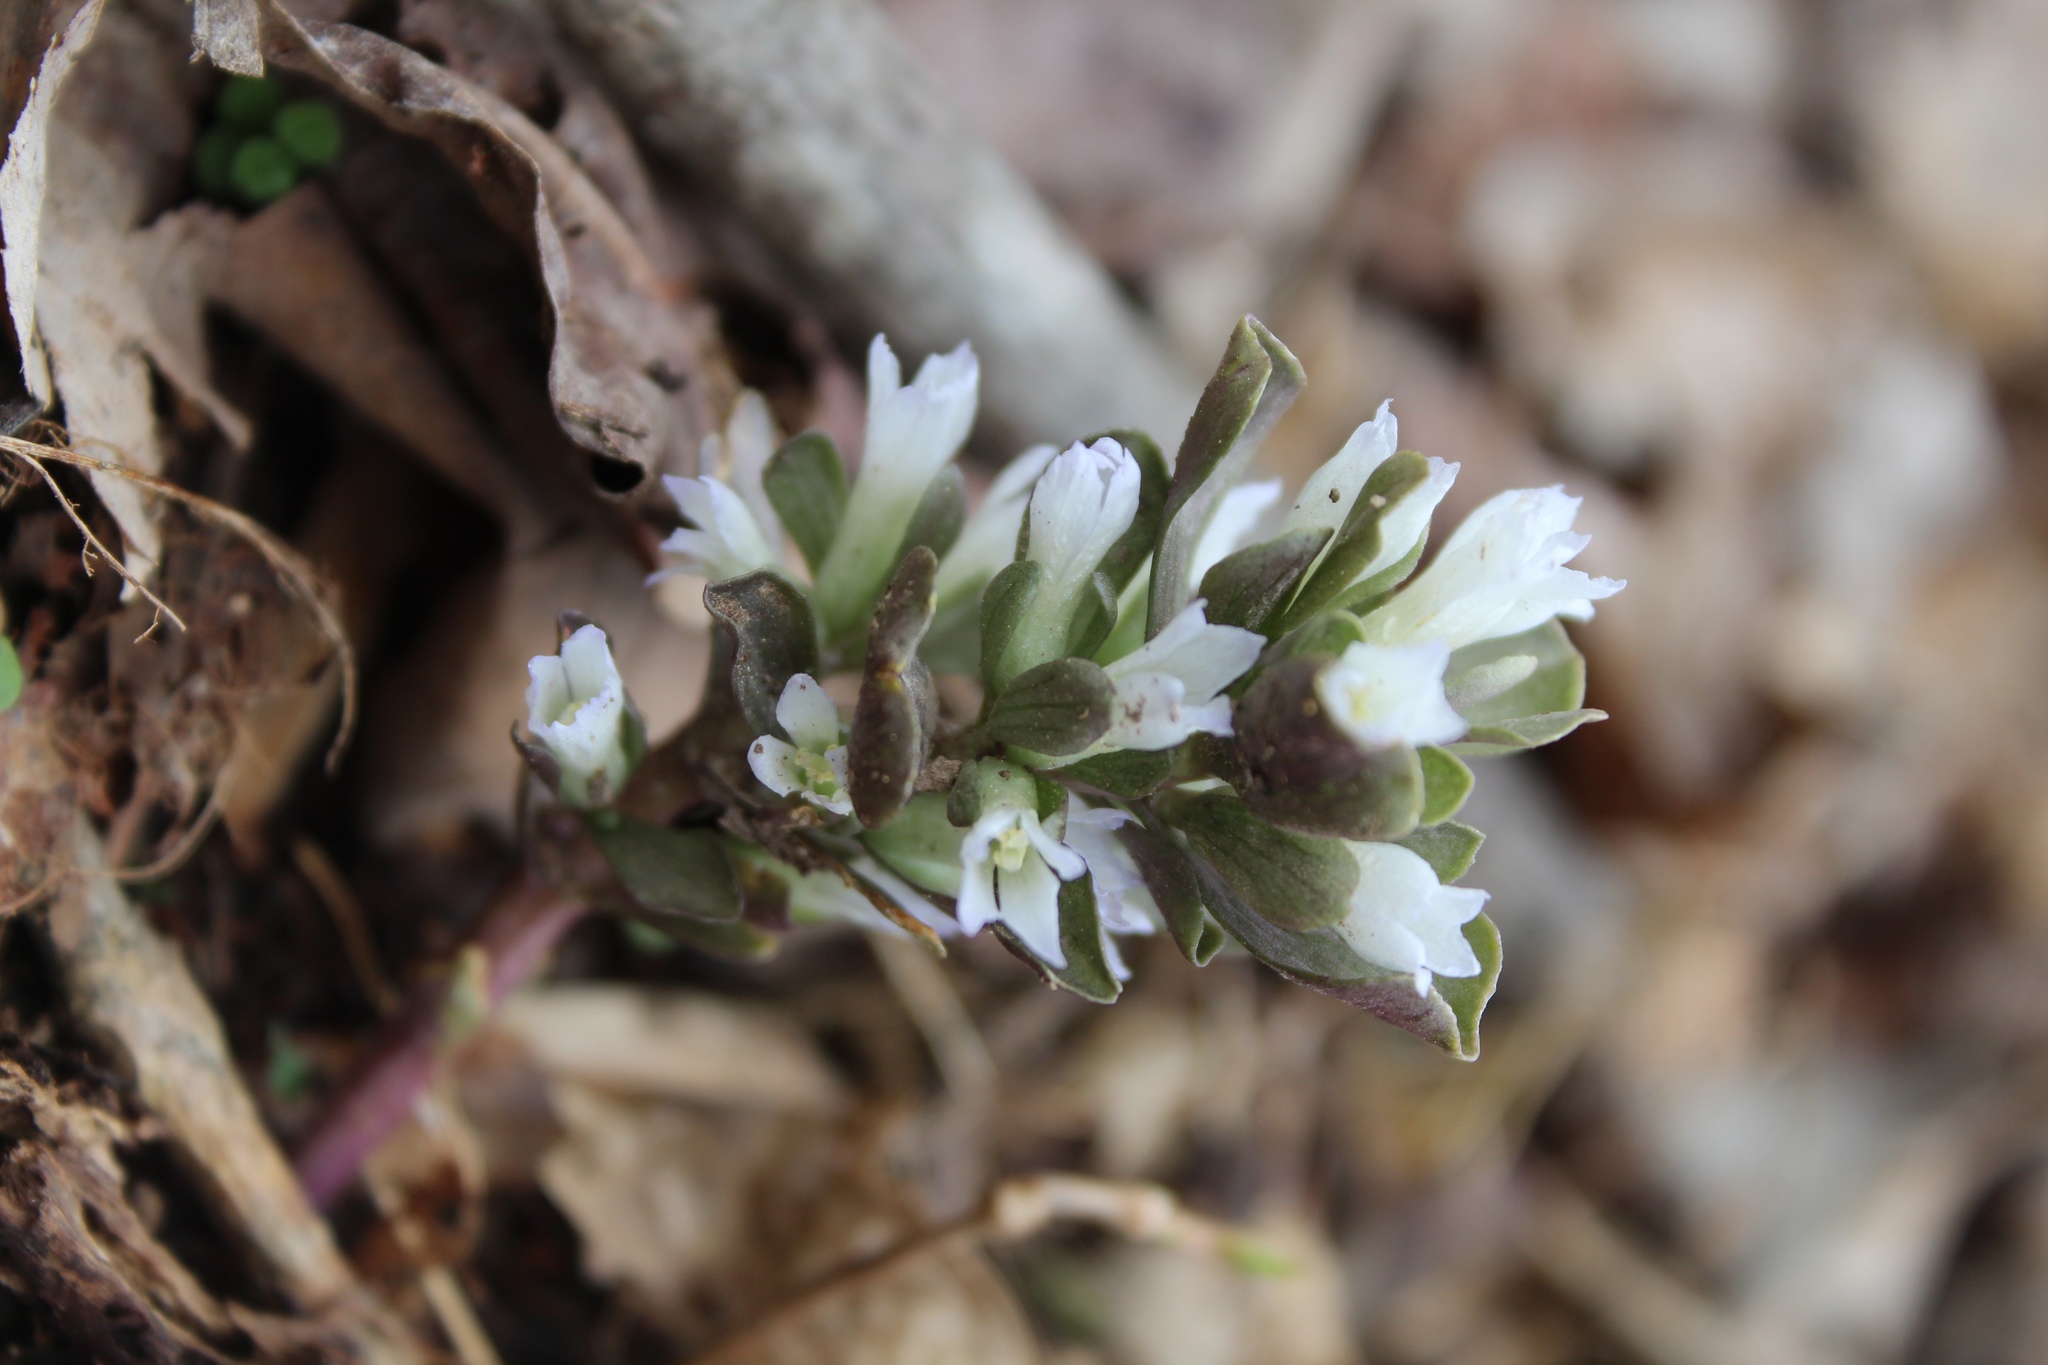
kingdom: Plantae
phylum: Tracheophyta
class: Magnoliopsida
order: Gentianales
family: Gentianaceae
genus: Obolaria
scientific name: Obolaria virginica
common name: Pennywort
